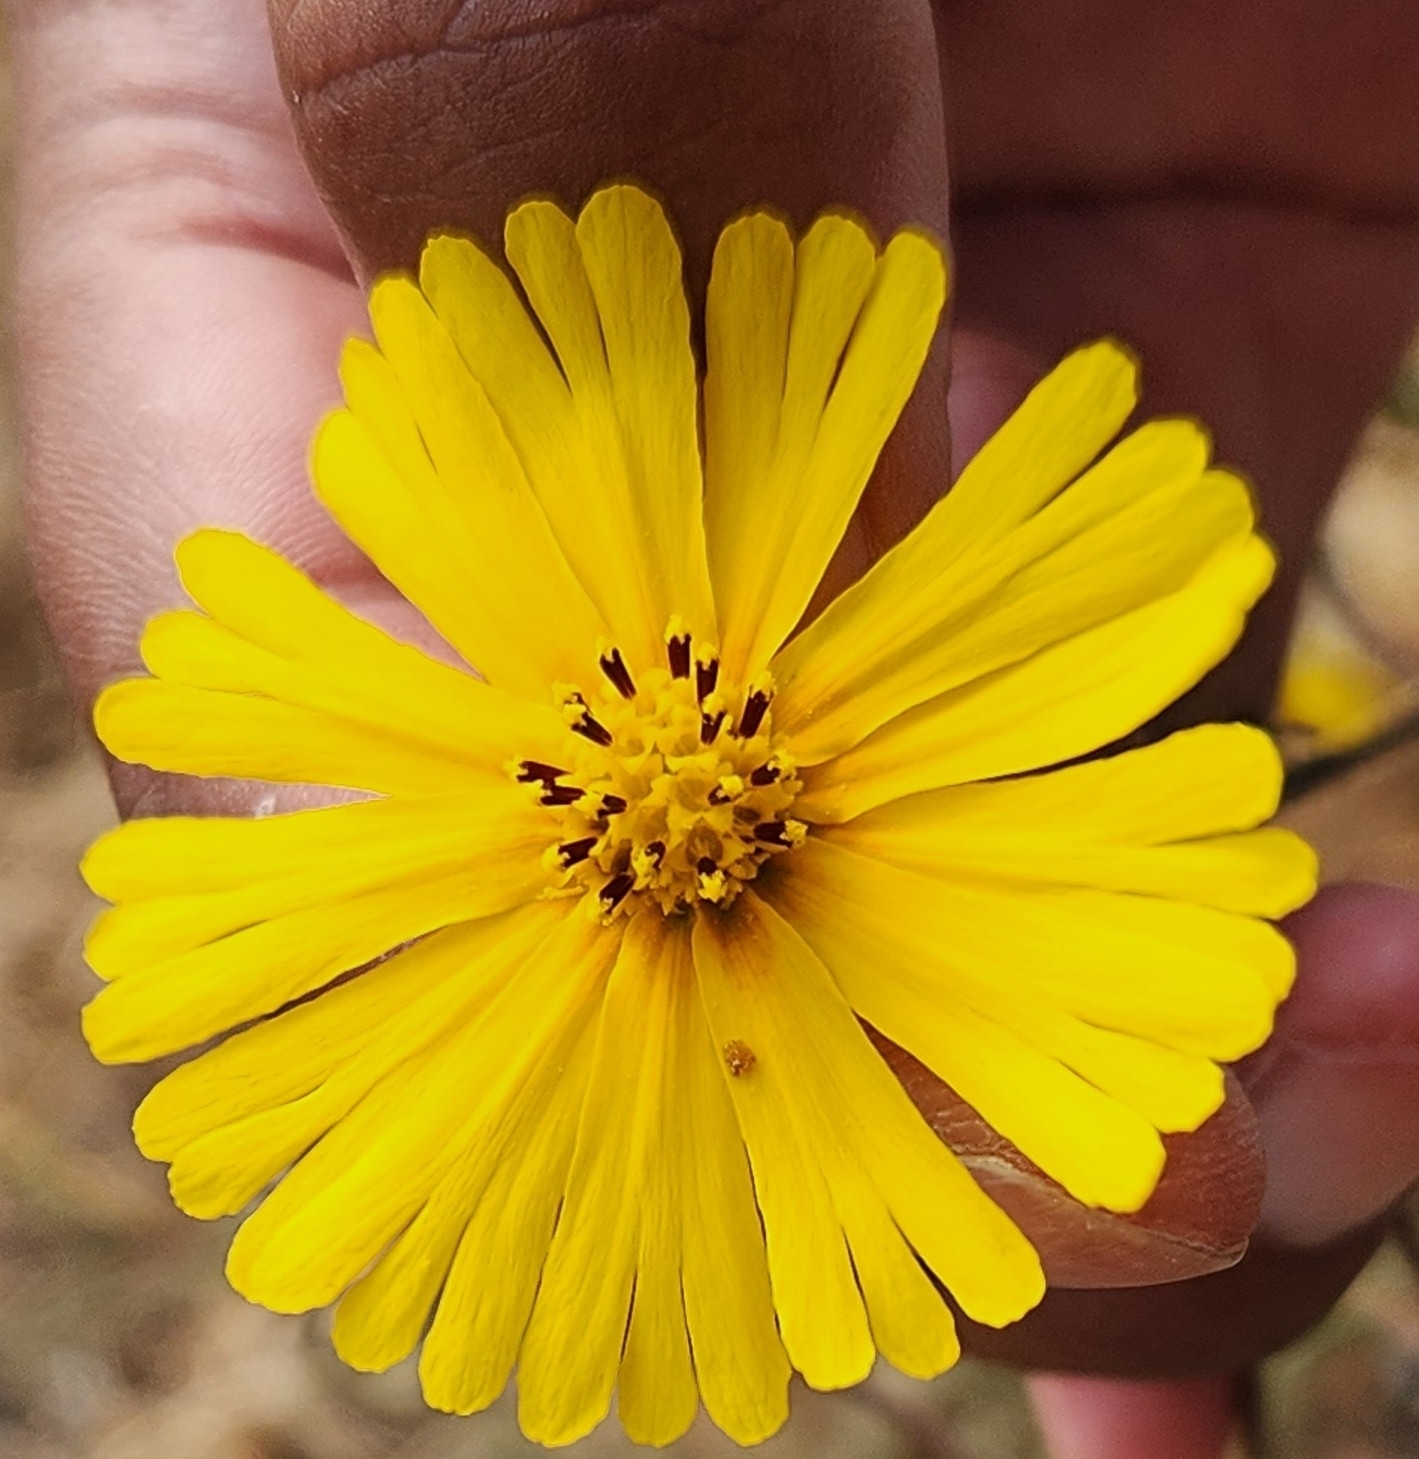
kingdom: Plantae
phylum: Tracheophyta
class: Magnoliopsida
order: Asterales
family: Asteraceae
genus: Madia
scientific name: Madia elegans
